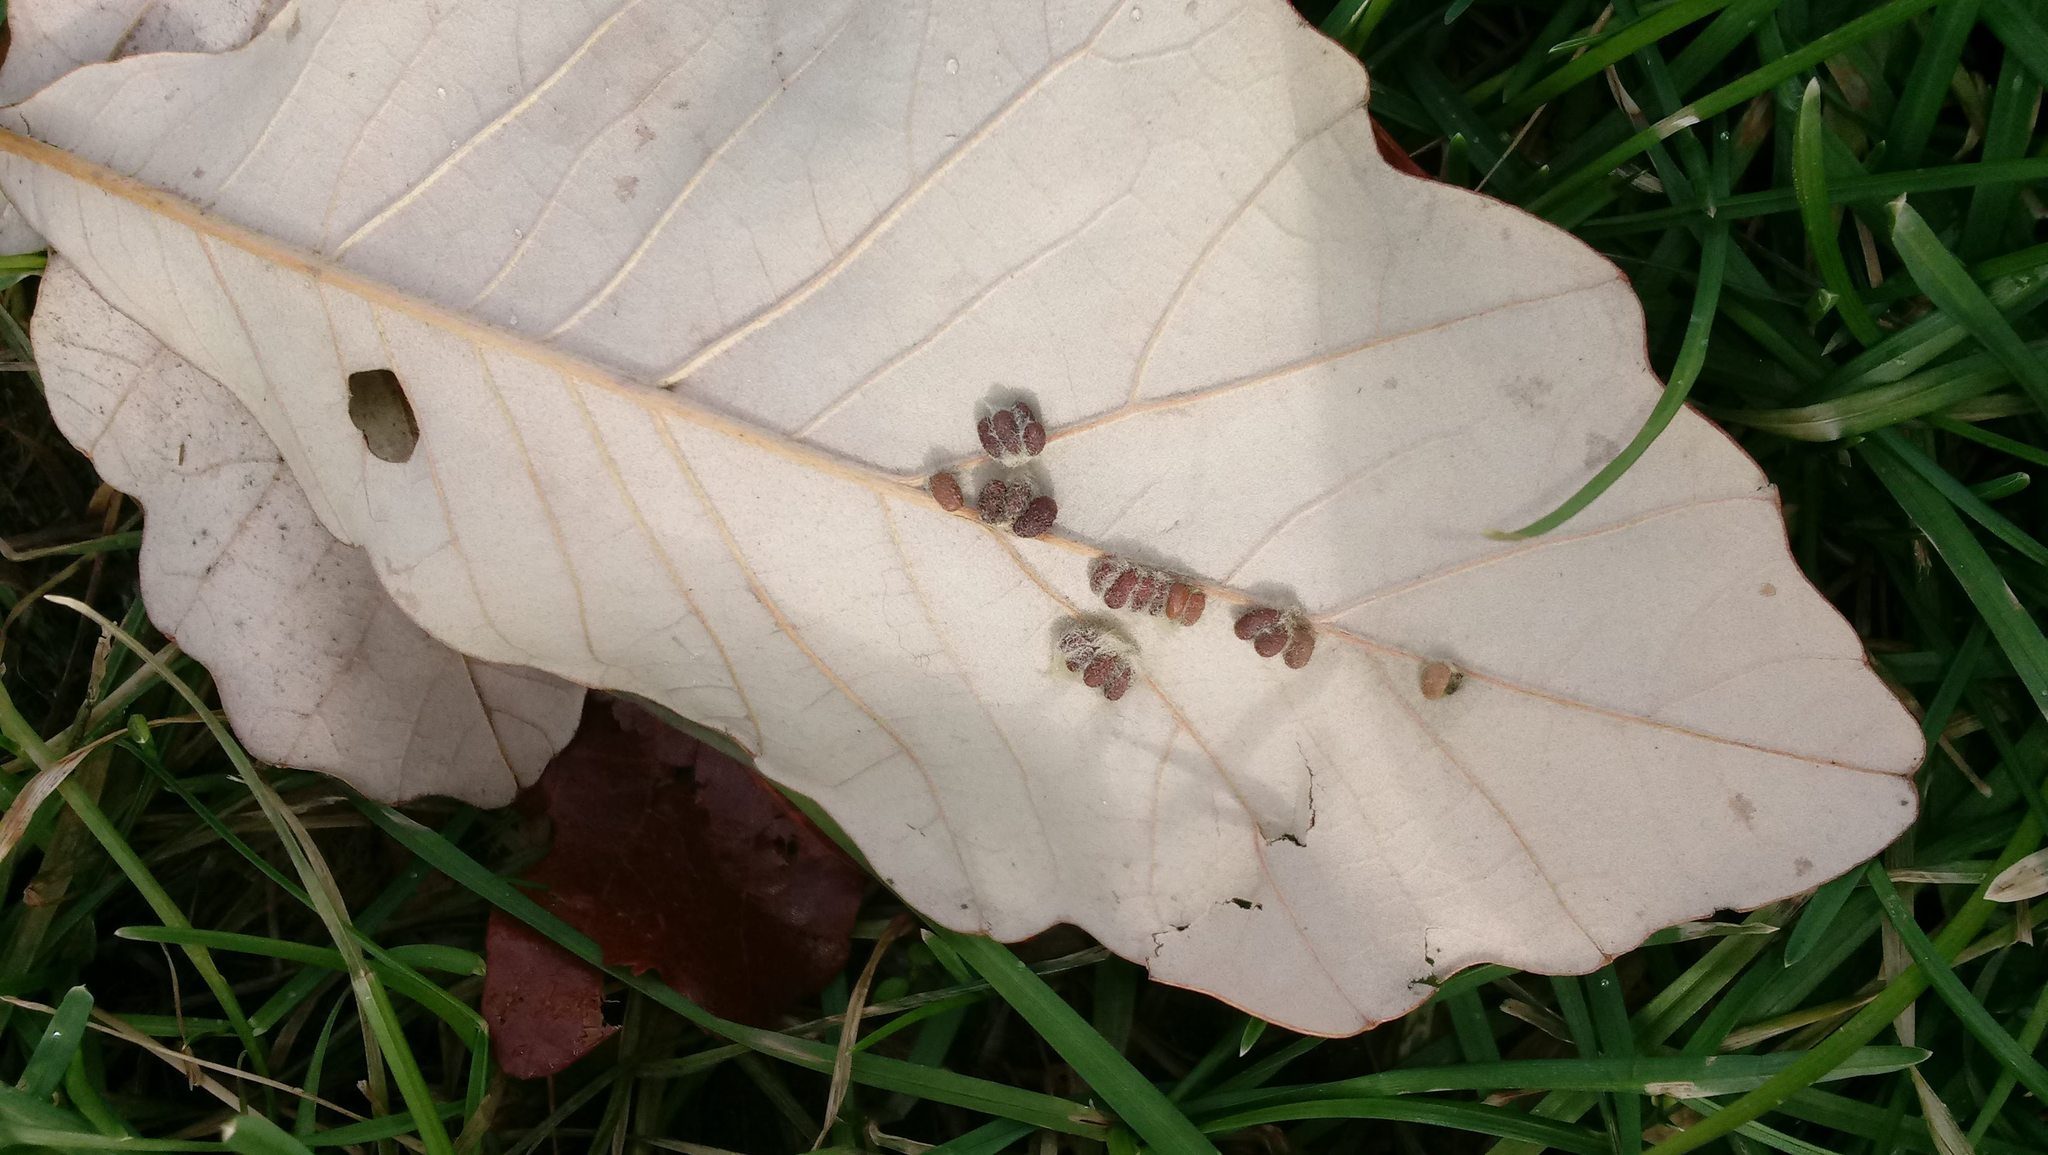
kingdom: Animalia
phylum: Arthropoda
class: Insecta
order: Hymenoptera
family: Cynipidae
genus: Andricus
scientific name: Andricus Druon ignotum
